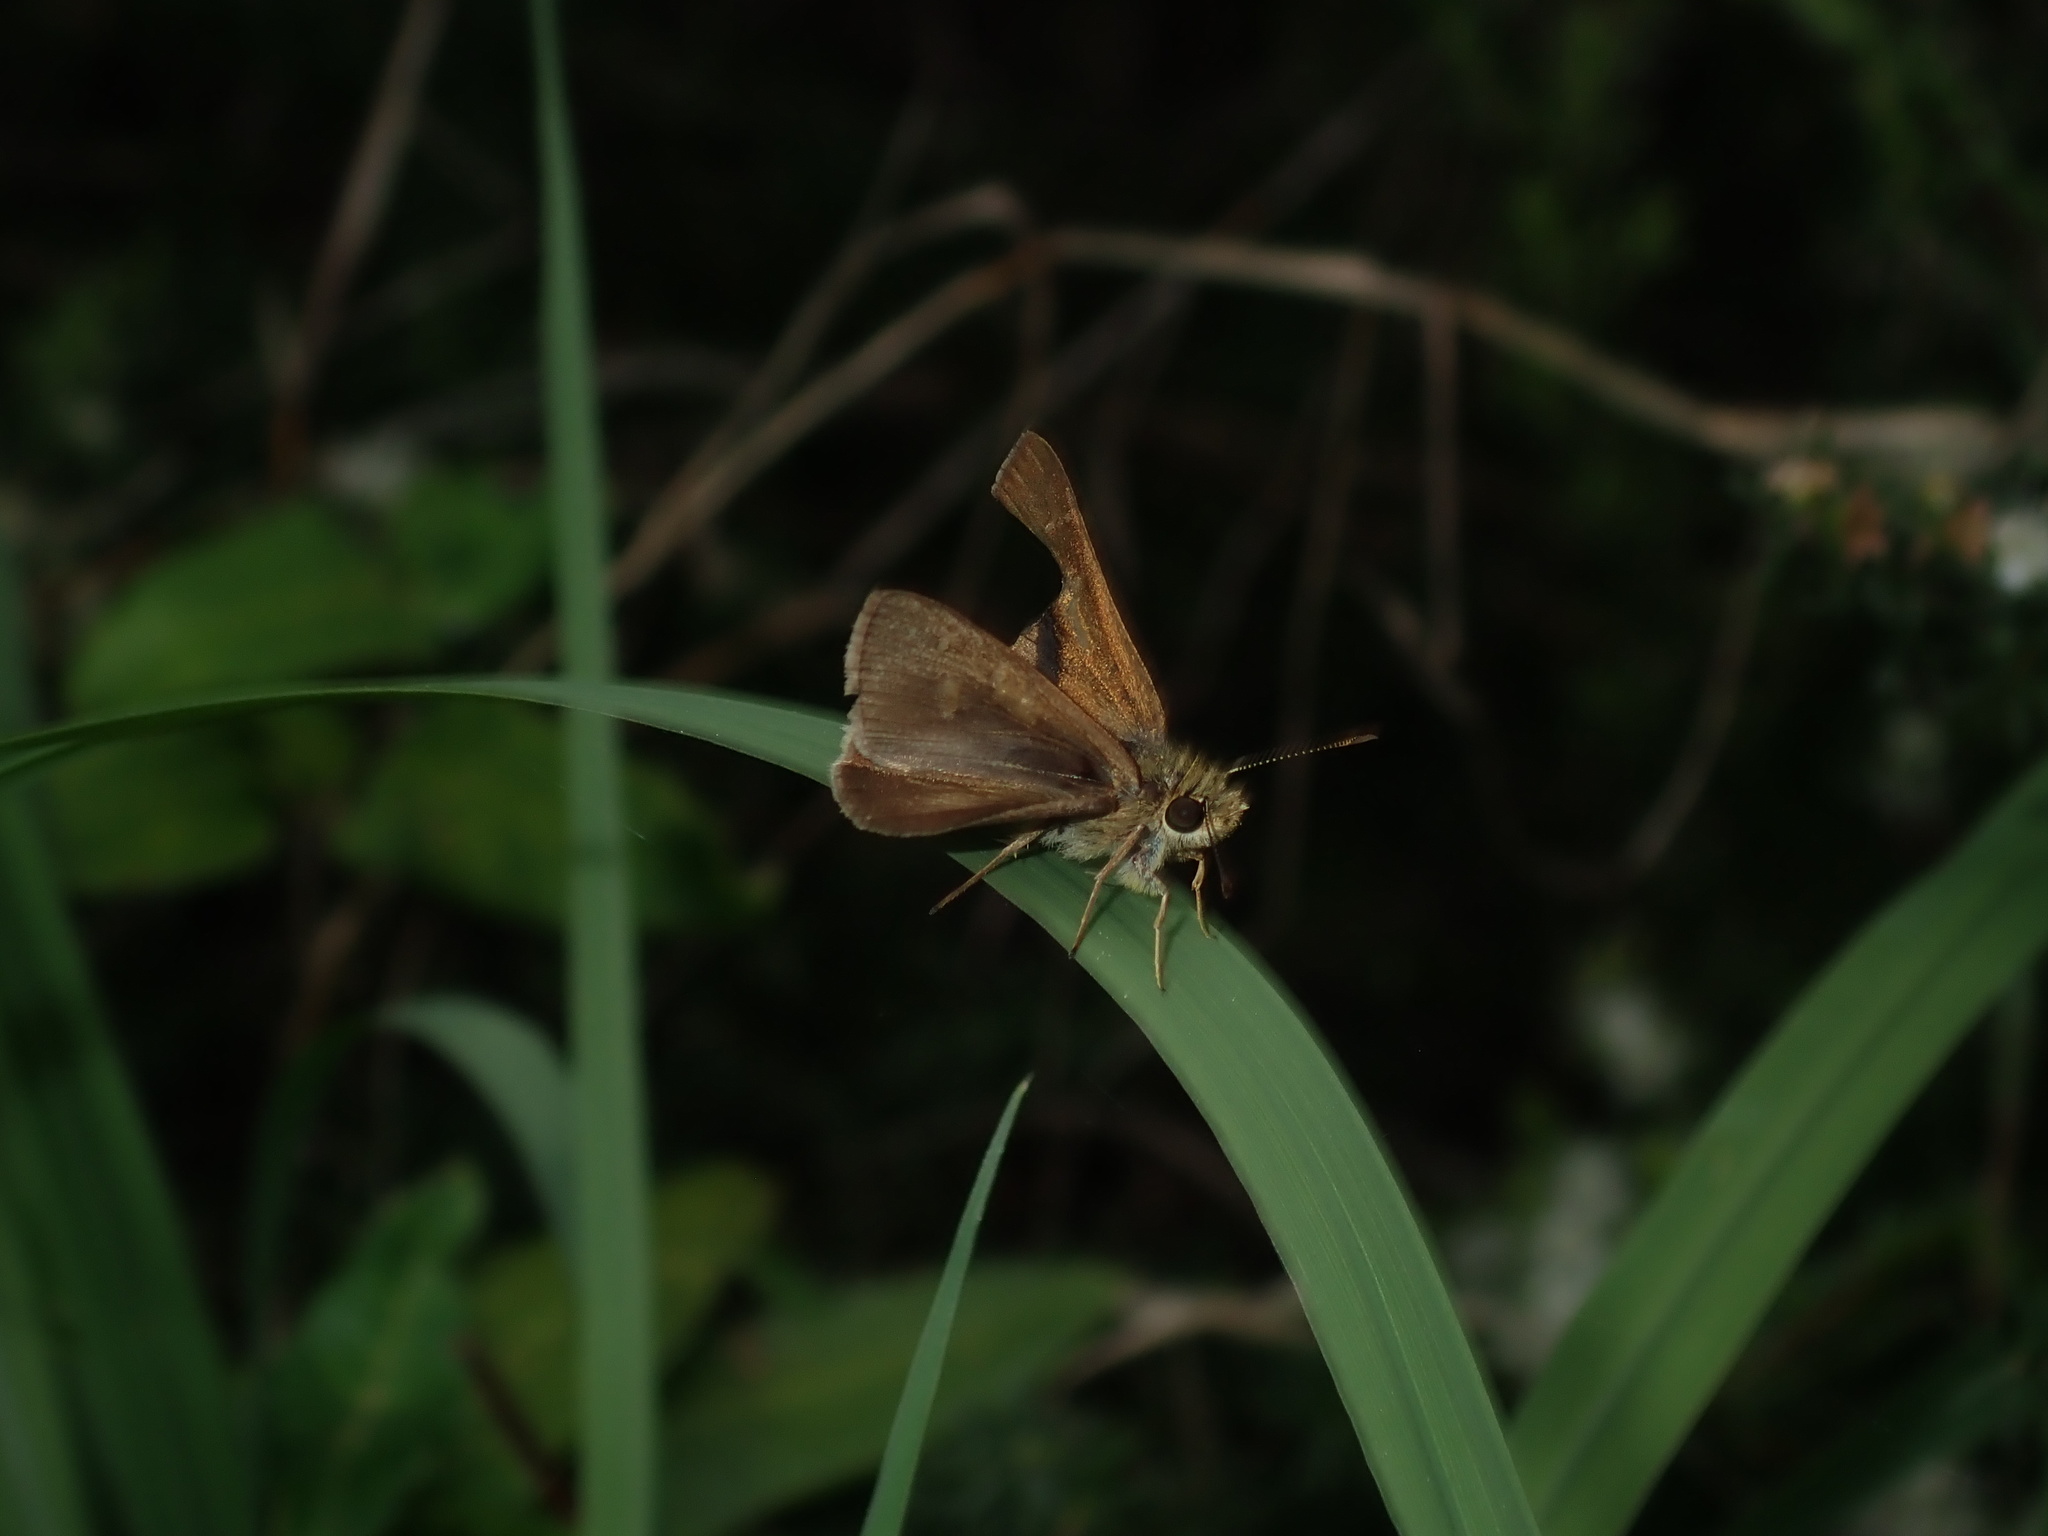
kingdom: Animalia
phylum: Arthropoda
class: Insecta
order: Lepidoptera
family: Hesperiidae
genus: Toxidia
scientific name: Toxidia
